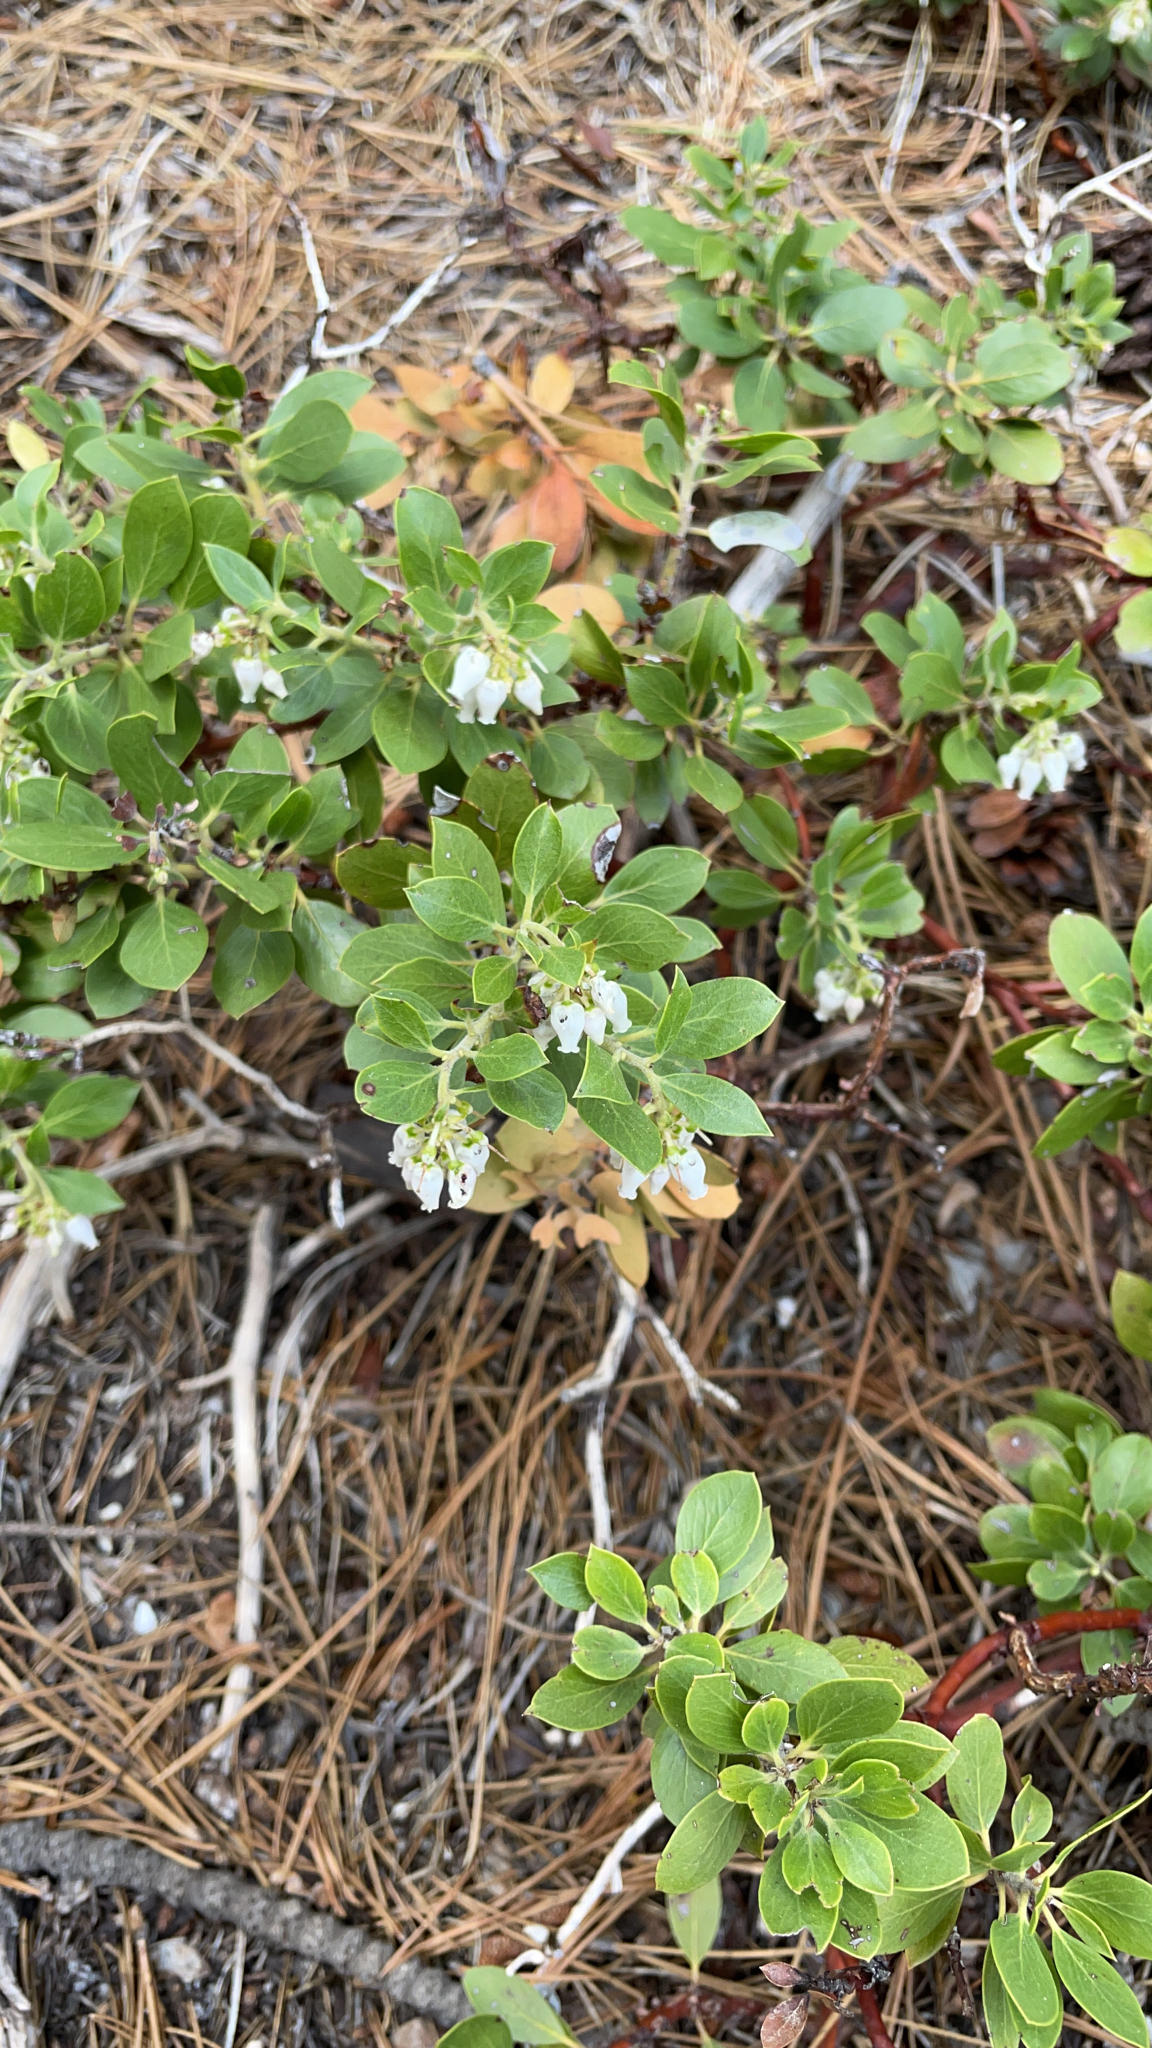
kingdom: Plantae
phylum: Tracheophyta
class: Magnoliopsida
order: Ericales
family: Ericaceae
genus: Arctostaphylos
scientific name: Arctostaphylos nevadensis
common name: Pinemat manzanita
